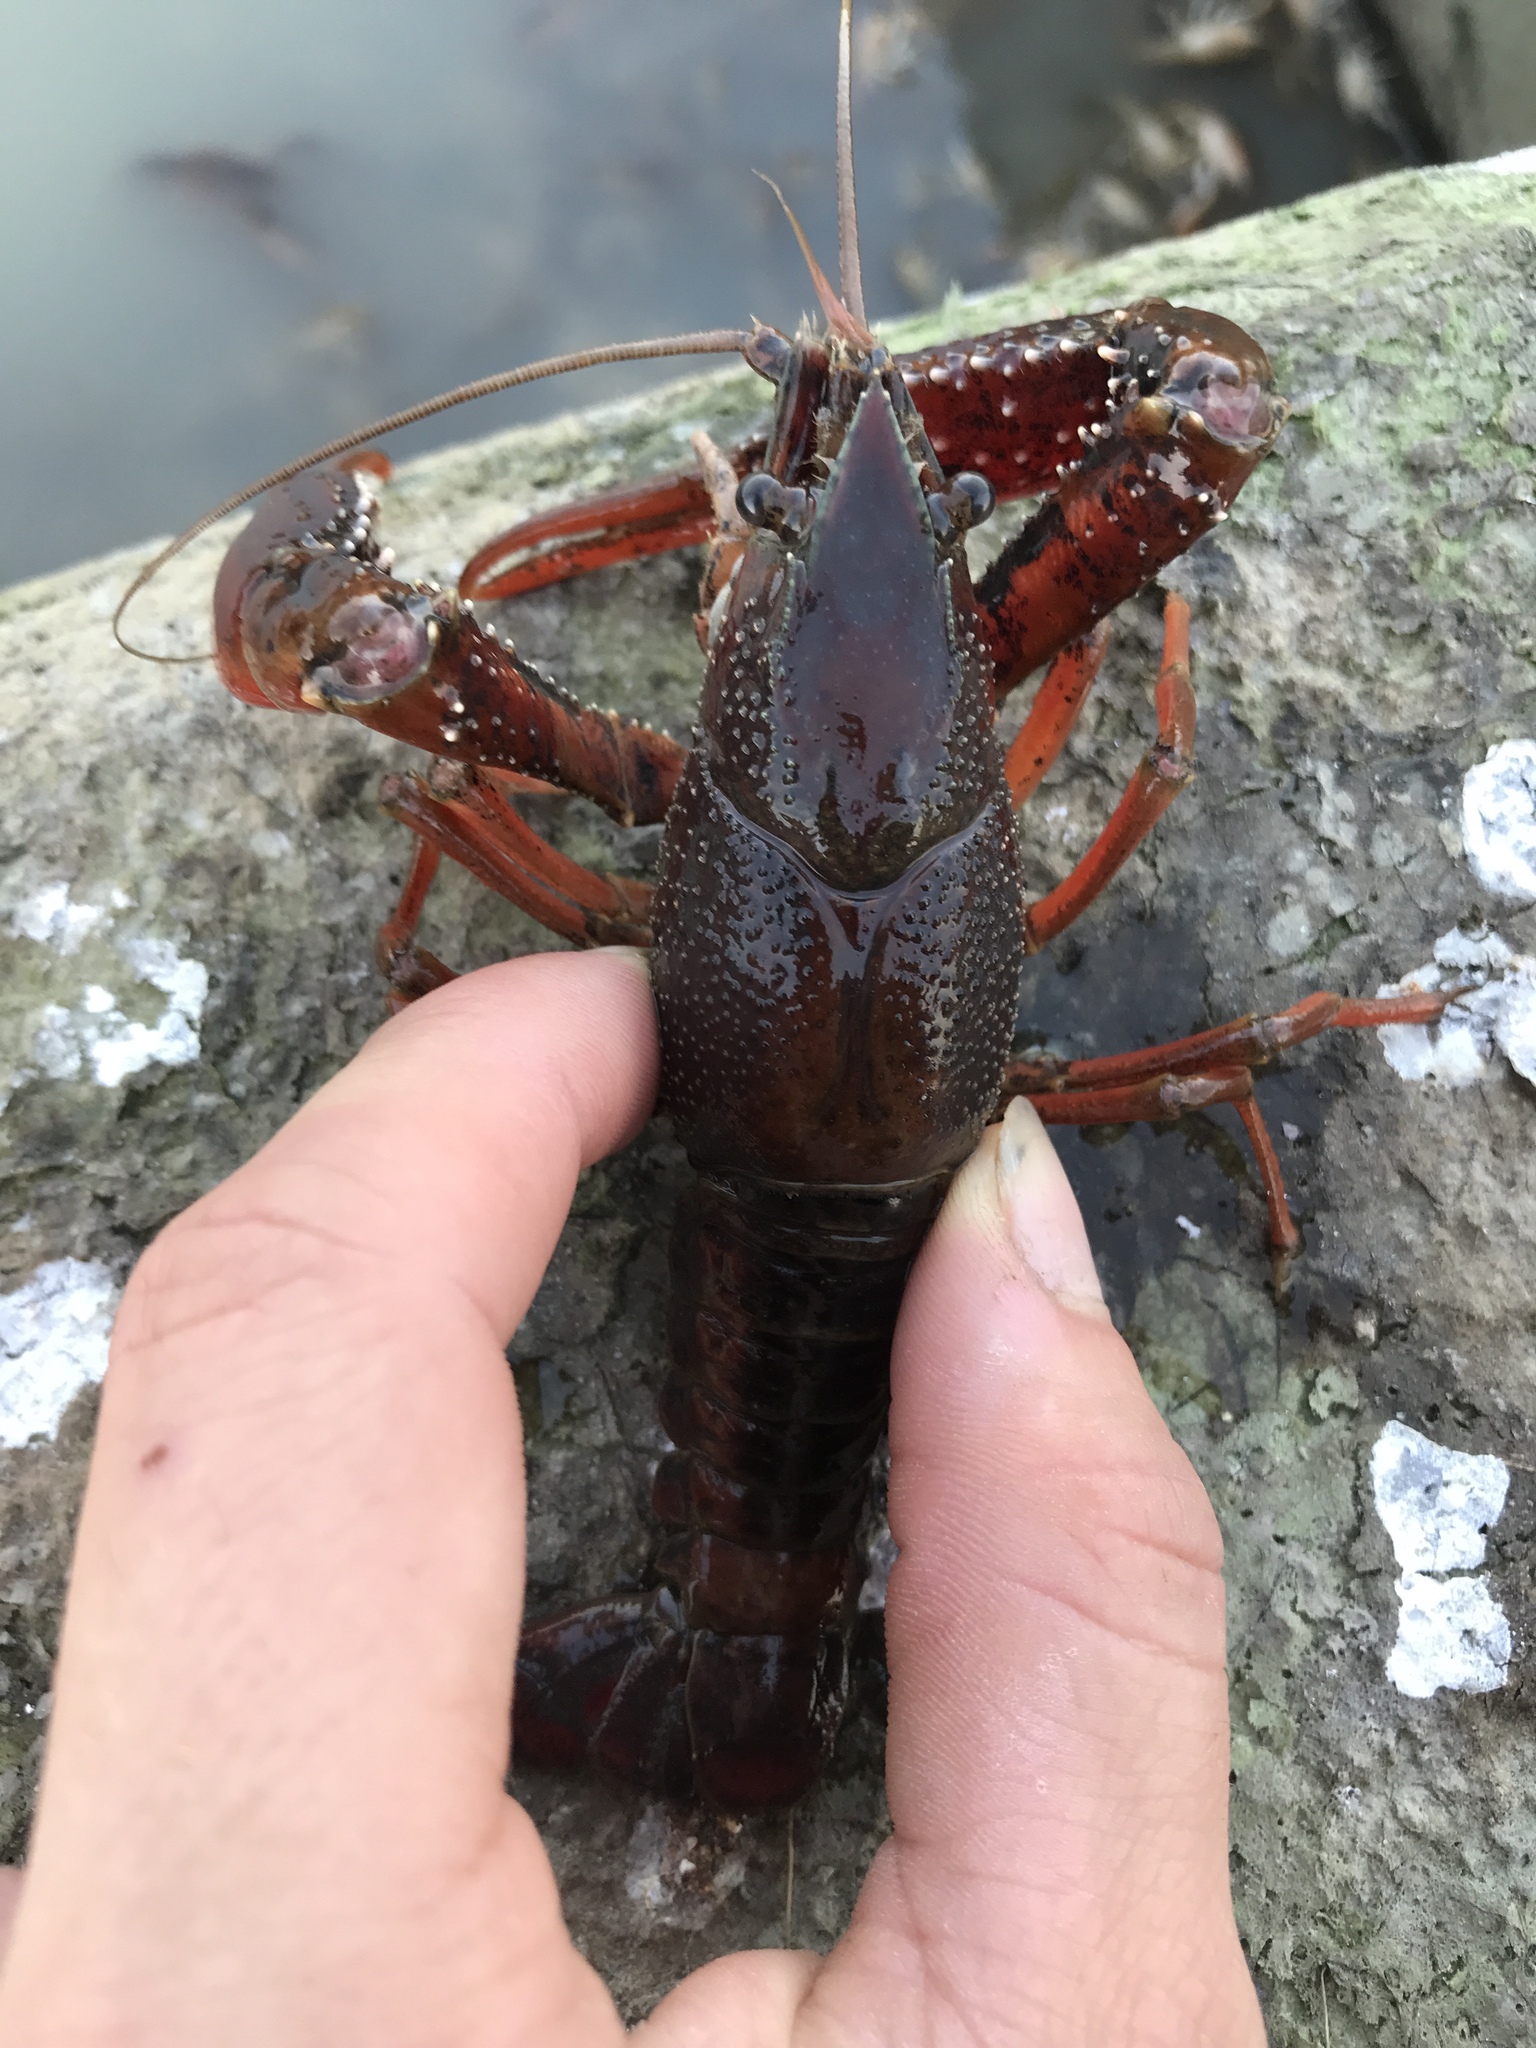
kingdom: Animalia
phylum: Arthropoda
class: Malacostraca
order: Decapoda
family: Cambaridae
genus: Procambarus
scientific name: Procambarus acutus
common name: White river crayfish
